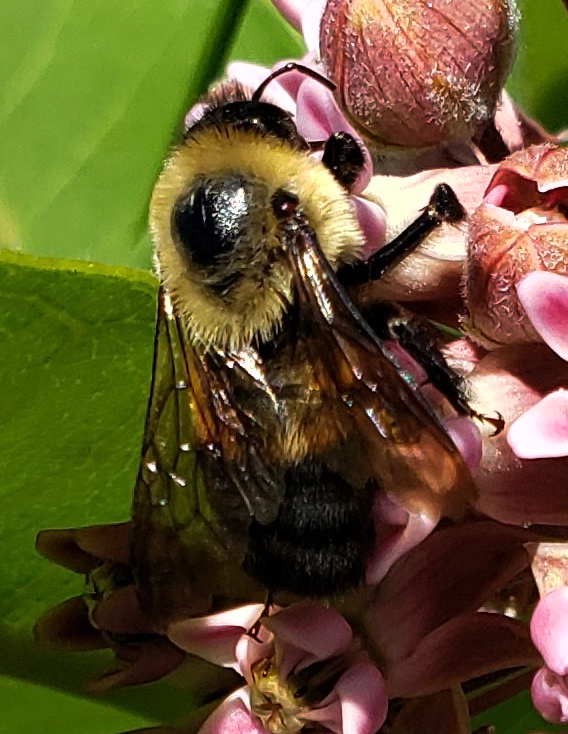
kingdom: Animalia
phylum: Arthropoda
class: Insecta
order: Hymenoptera
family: Apidae
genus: Bombus
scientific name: Bombus griseocollis
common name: Brown-belted bumble bee
